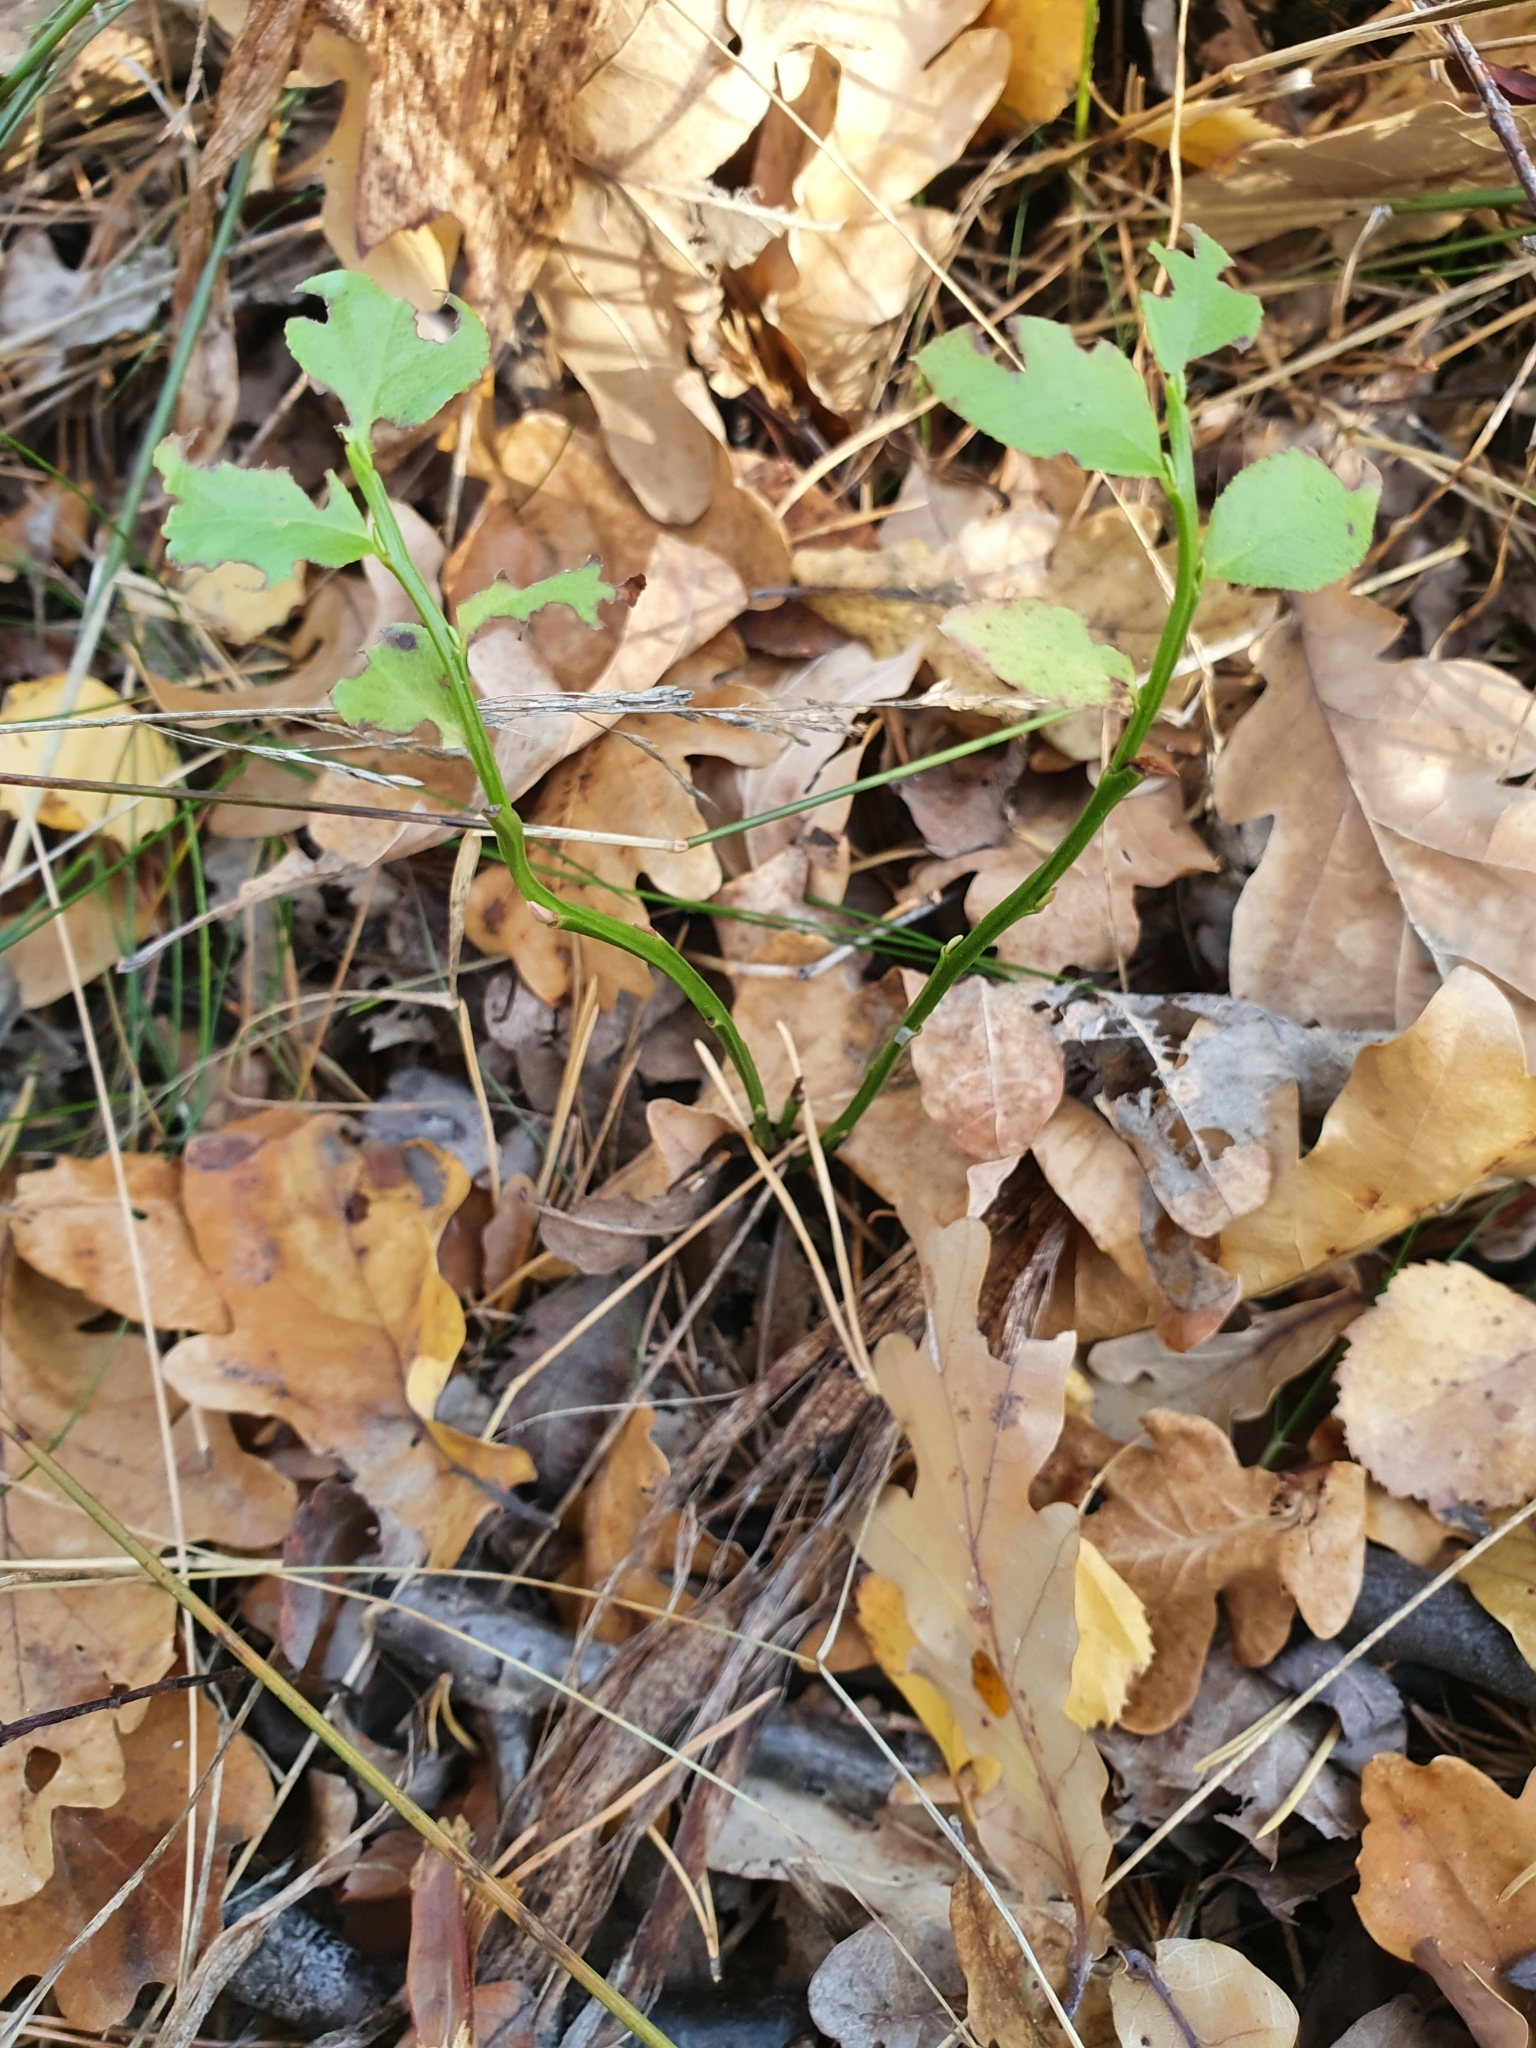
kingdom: Plantae
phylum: Tracheophyta
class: Magnoliopsida
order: Ericales
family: Ericaceae
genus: Vaccinium
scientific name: Vaccinium myrtillus
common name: Bilberry
